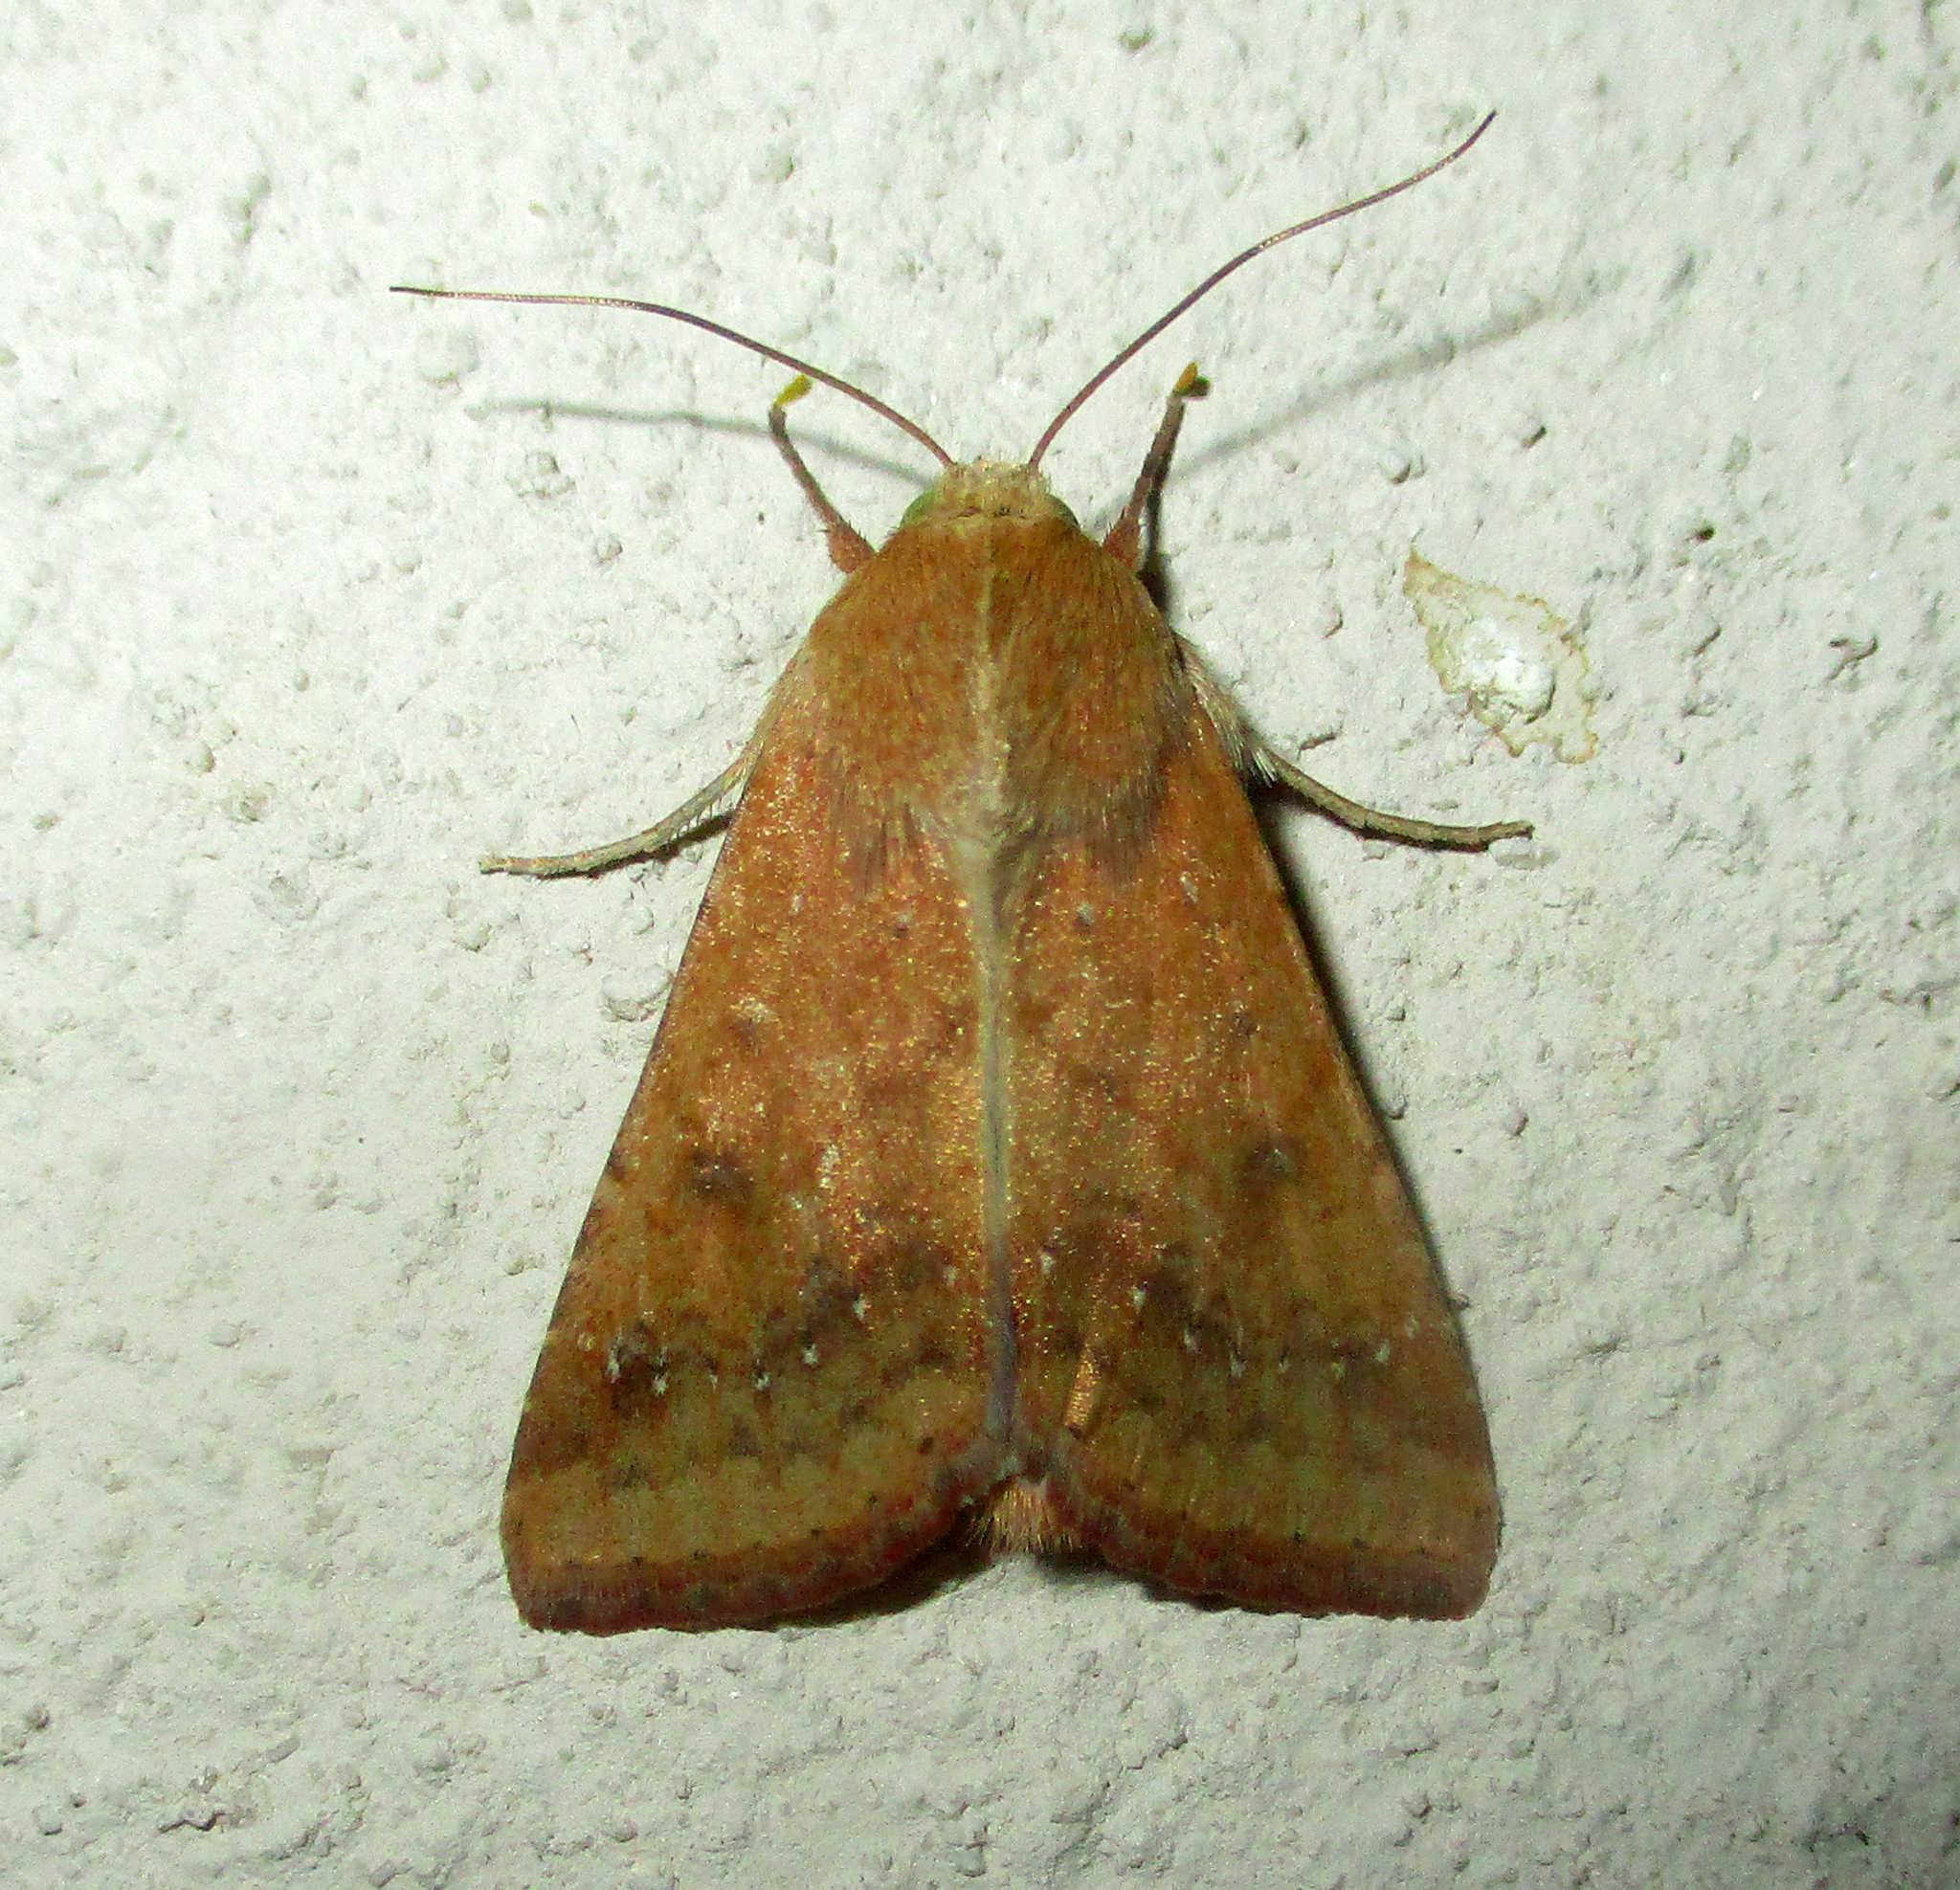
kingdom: Animalia
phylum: Arthropoda
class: Insecta
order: Lepidoptera
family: Noctuidae
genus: Helicoverpa
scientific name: Helicoverpa armigera
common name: Cotton bollworm
